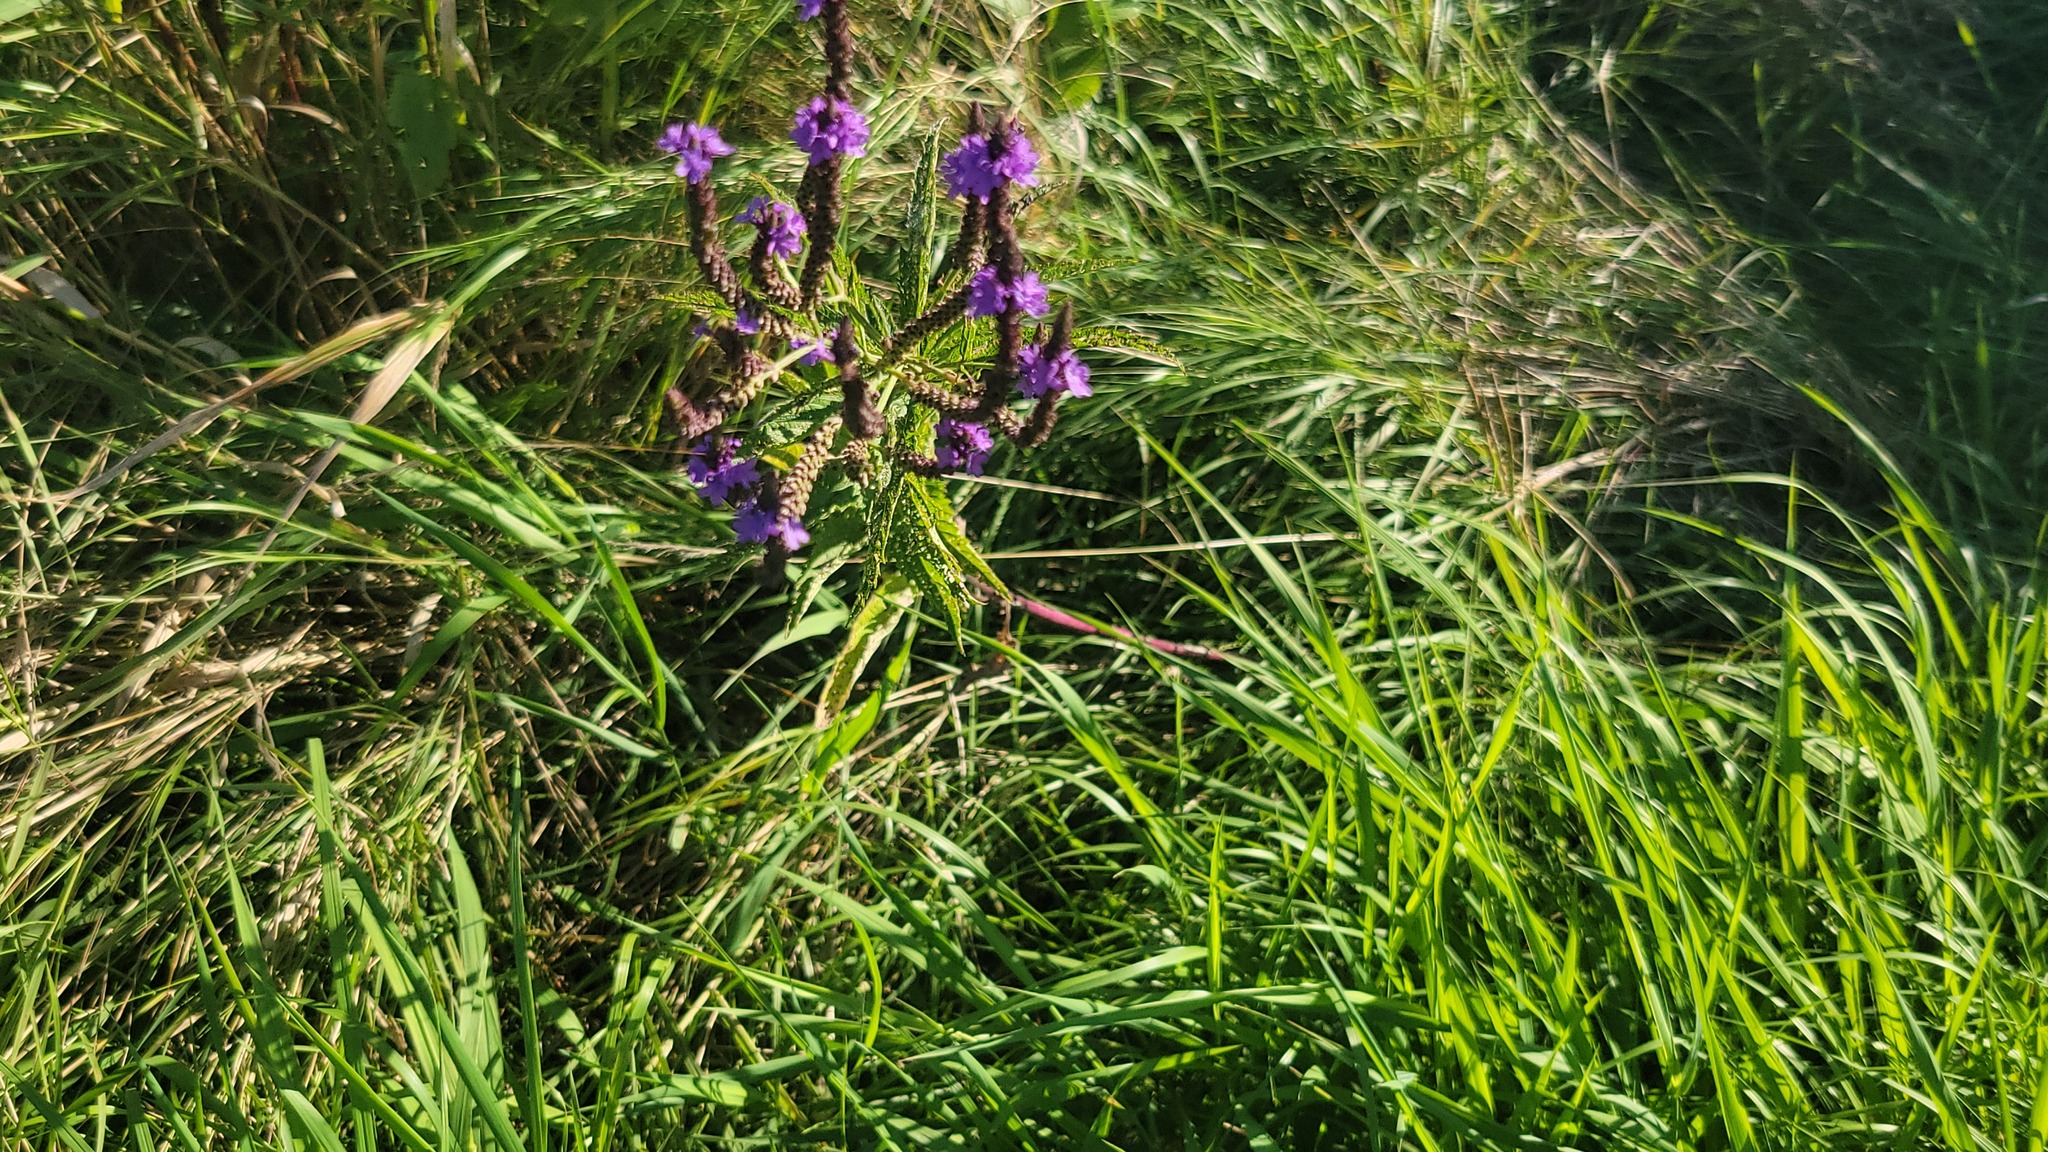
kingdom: Plantae
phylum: Tracheophyta
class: Magnoliopsida
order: Lamiales
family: Verbenaceae
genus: Verbena
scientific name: Verbena hastata
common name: American blue vervain
